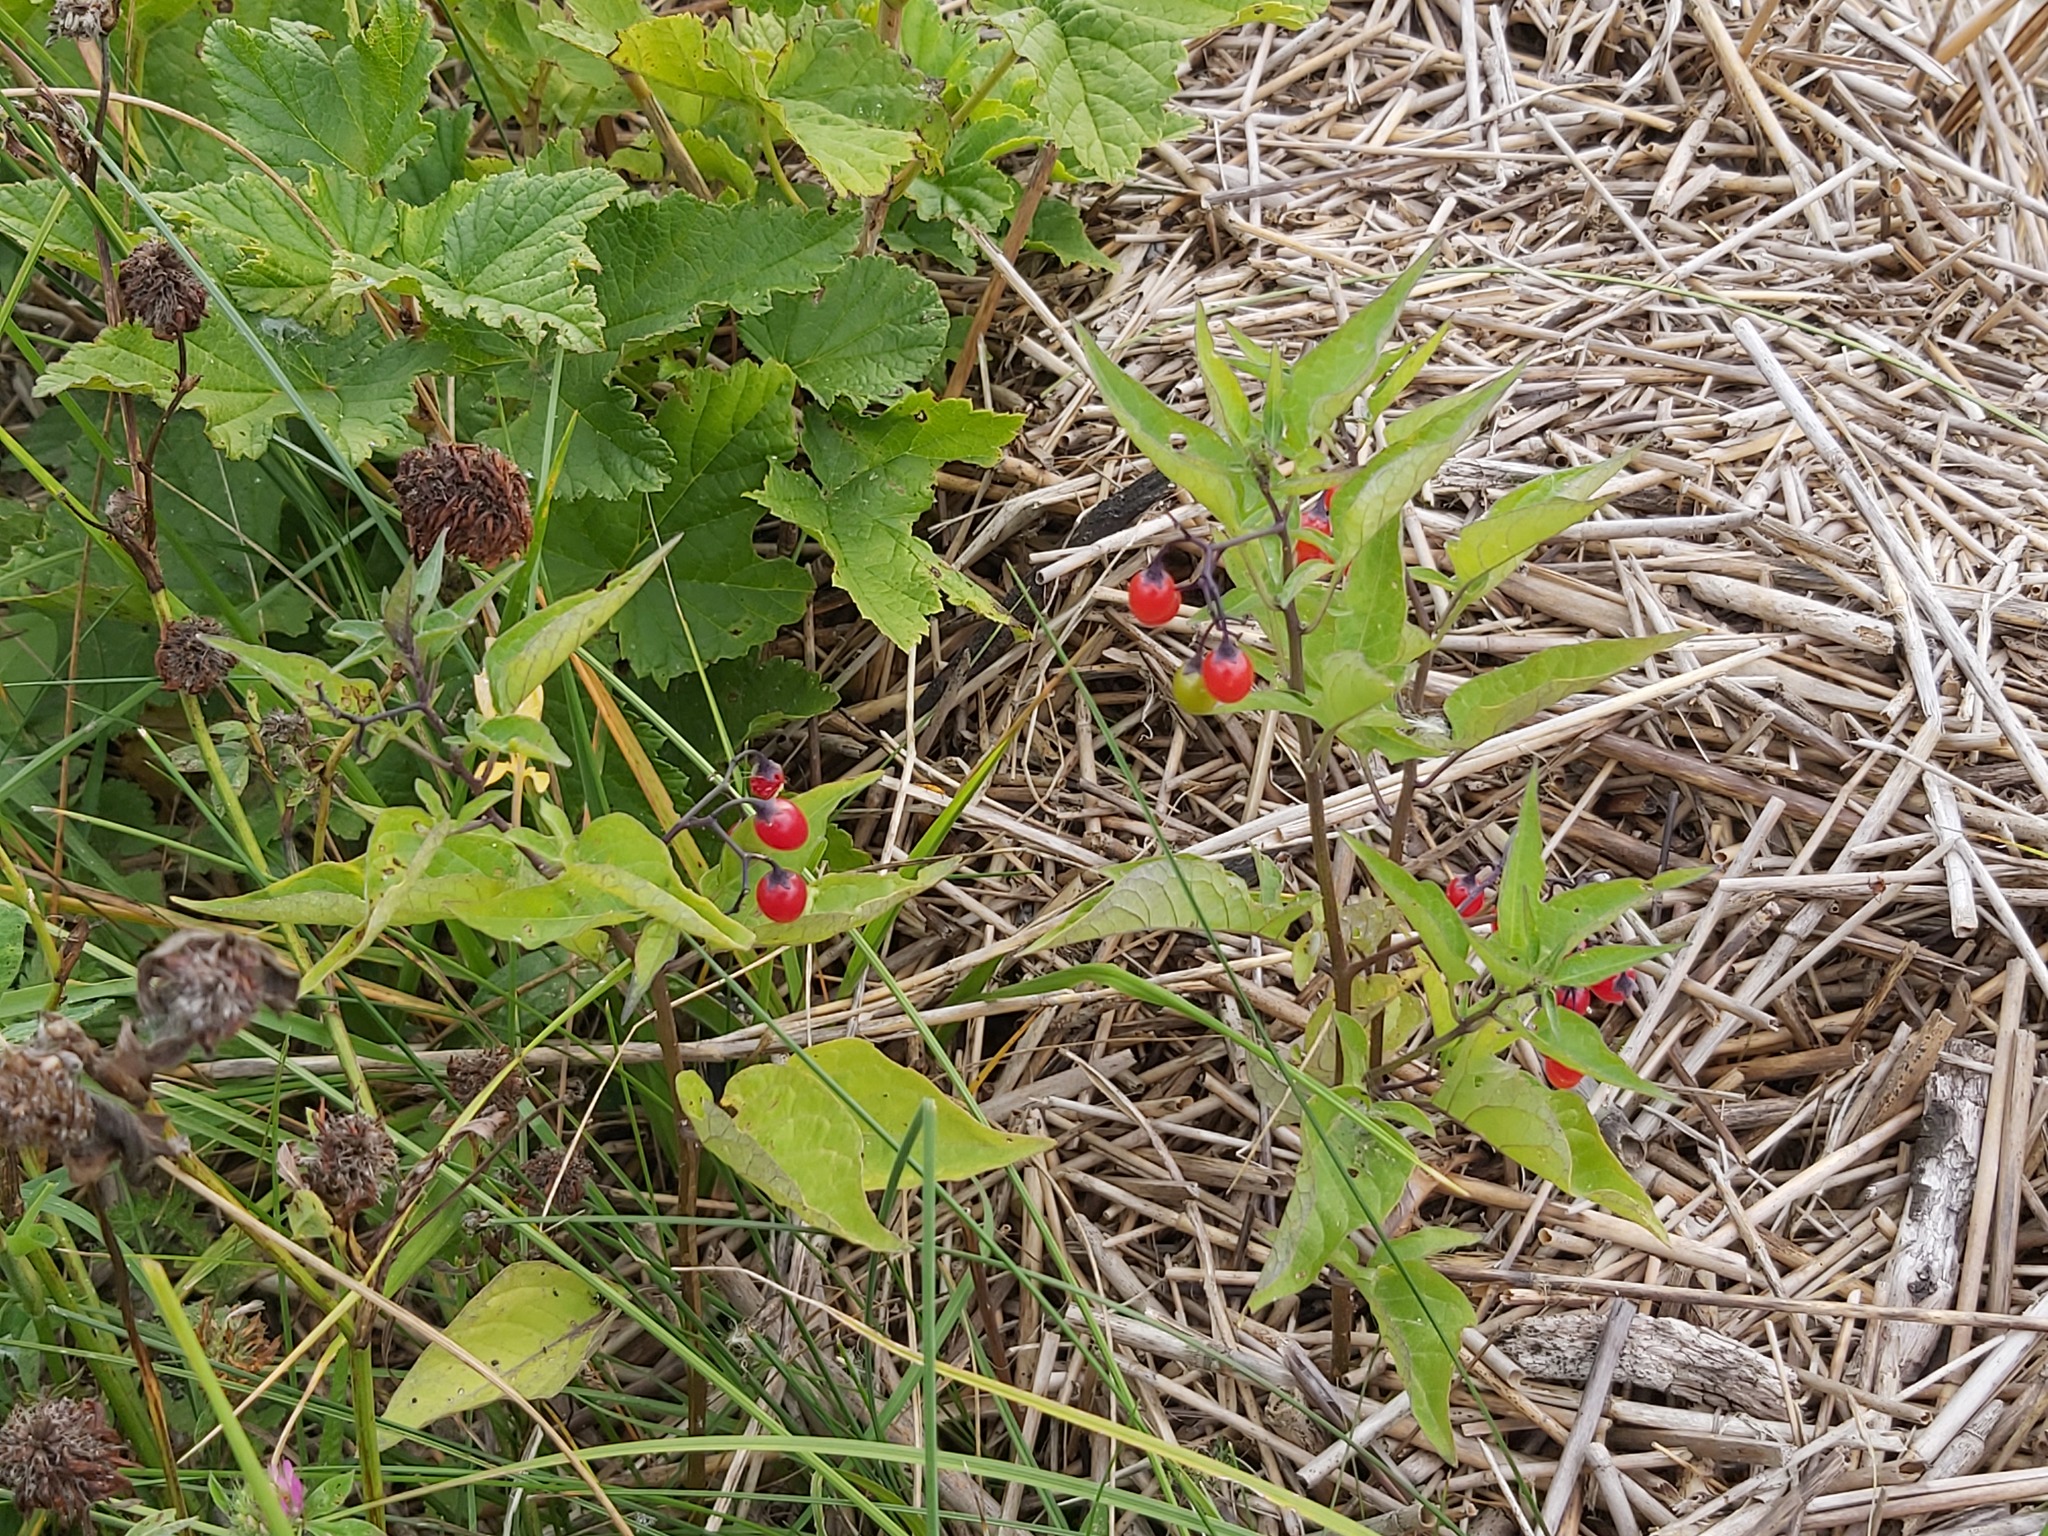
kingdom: Plantae
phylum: Tracheophyta
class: Magnoliopsida
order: Solanales
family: Solanaceae
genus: Solanum
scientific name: Solanum dulcamara
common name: Climbing nightshade
